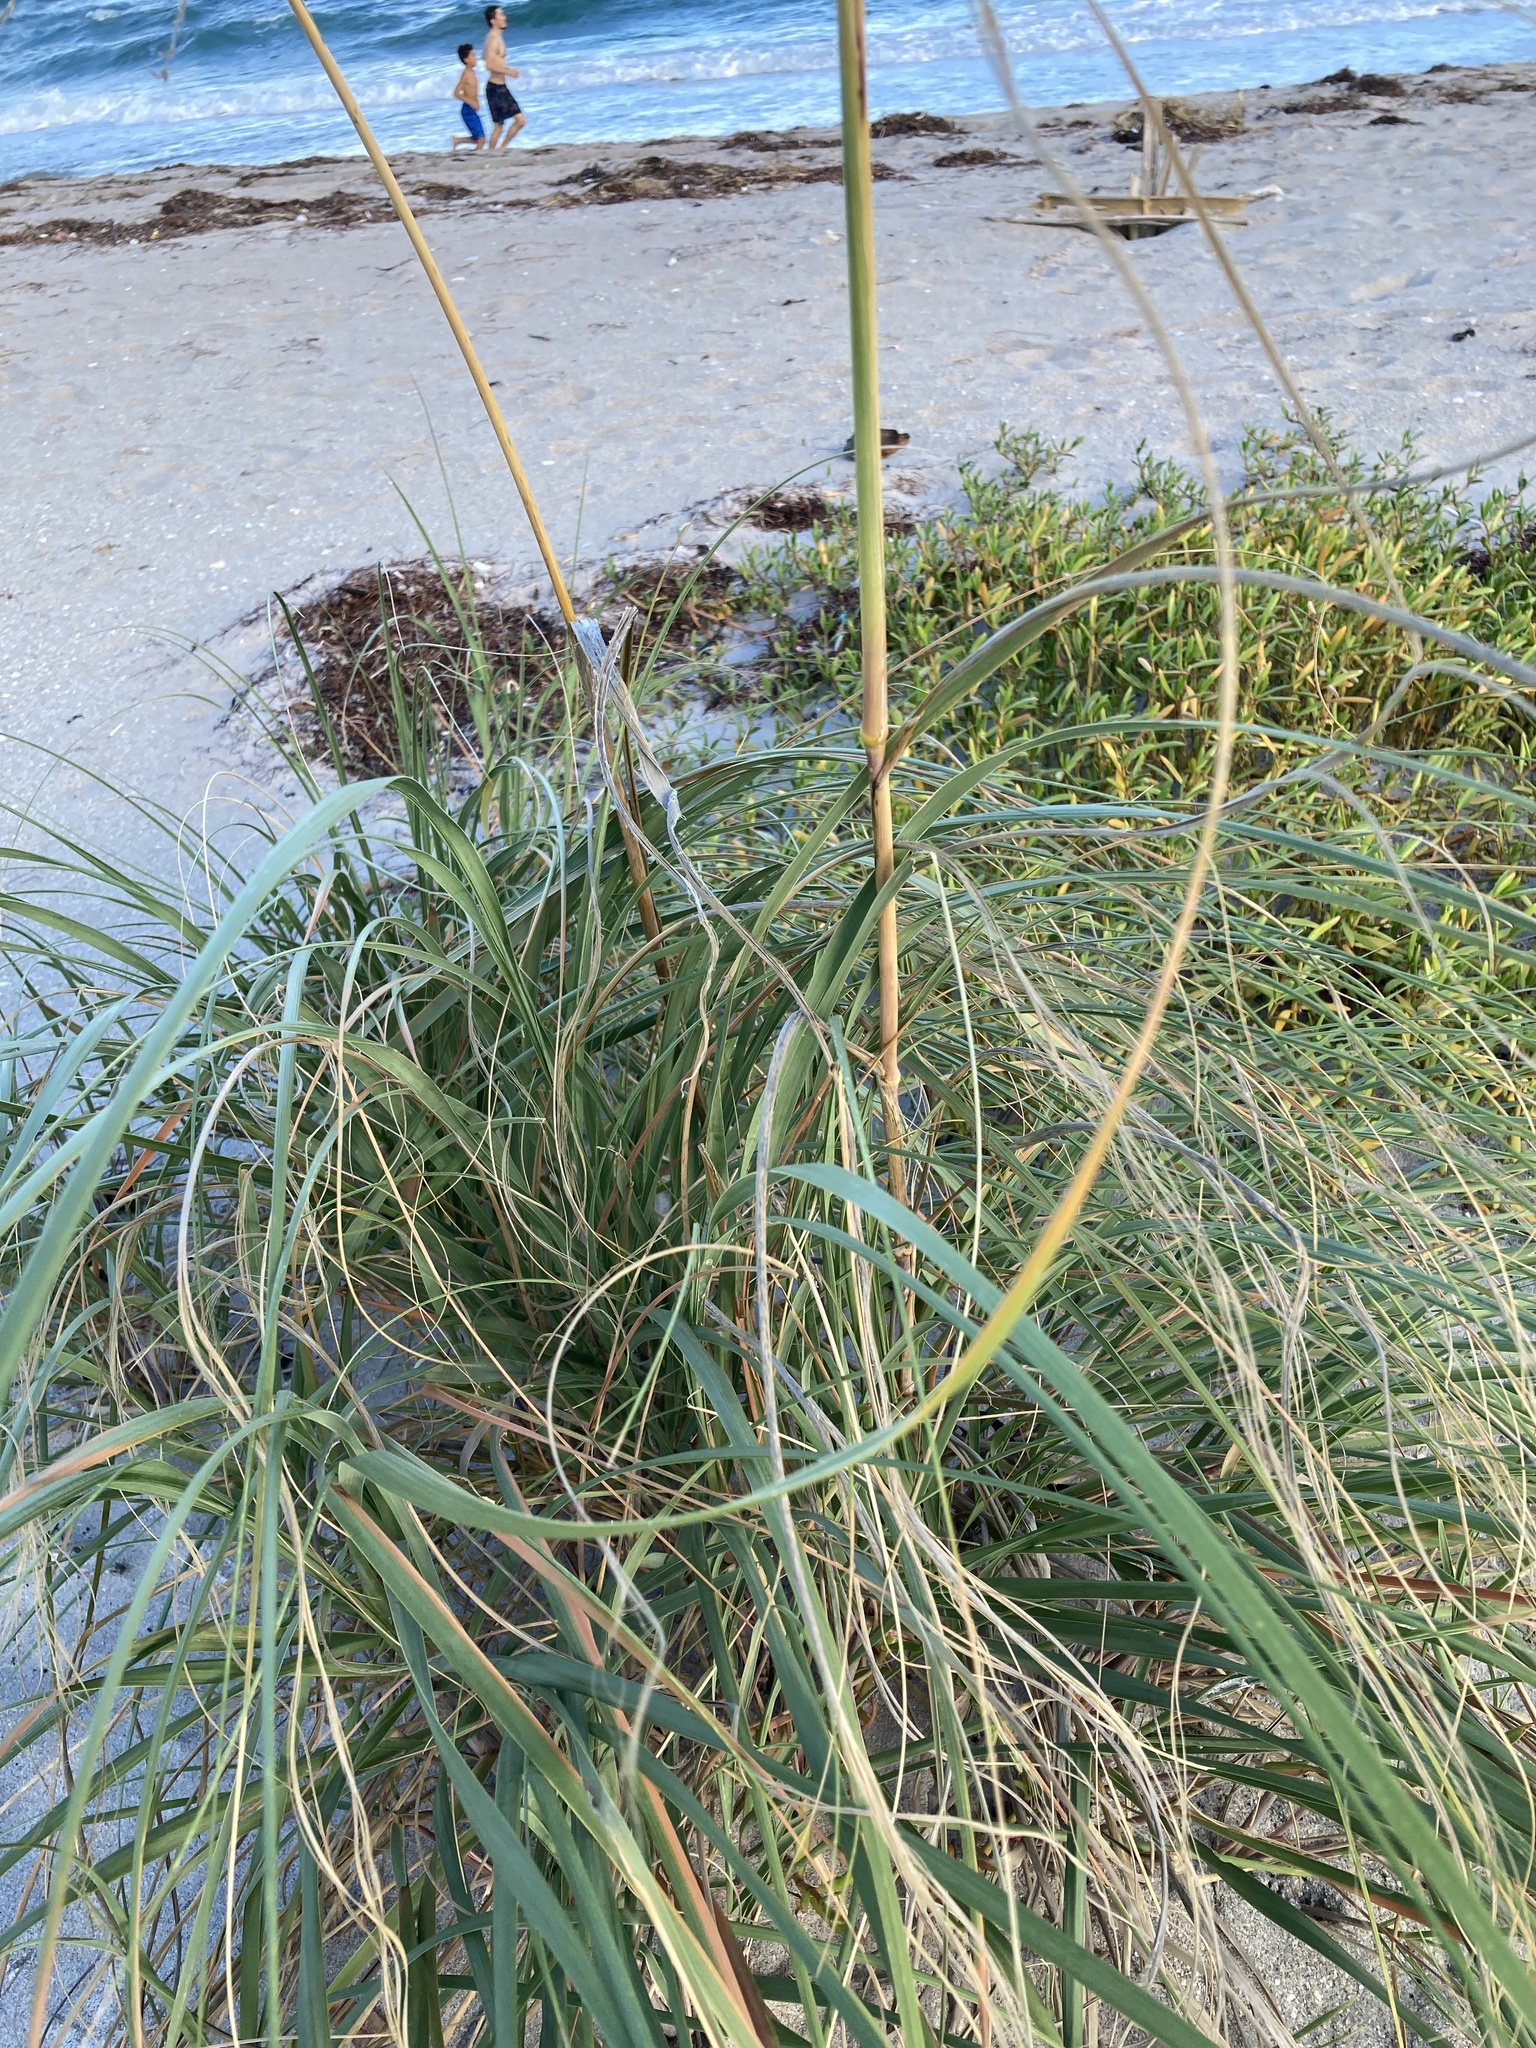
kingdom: Plantae
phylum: Tracheophyta
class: Liliopsida
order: Poales
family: Poaceae
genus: Uniola
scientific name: Uniola paniculata
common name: Seaside-oats
